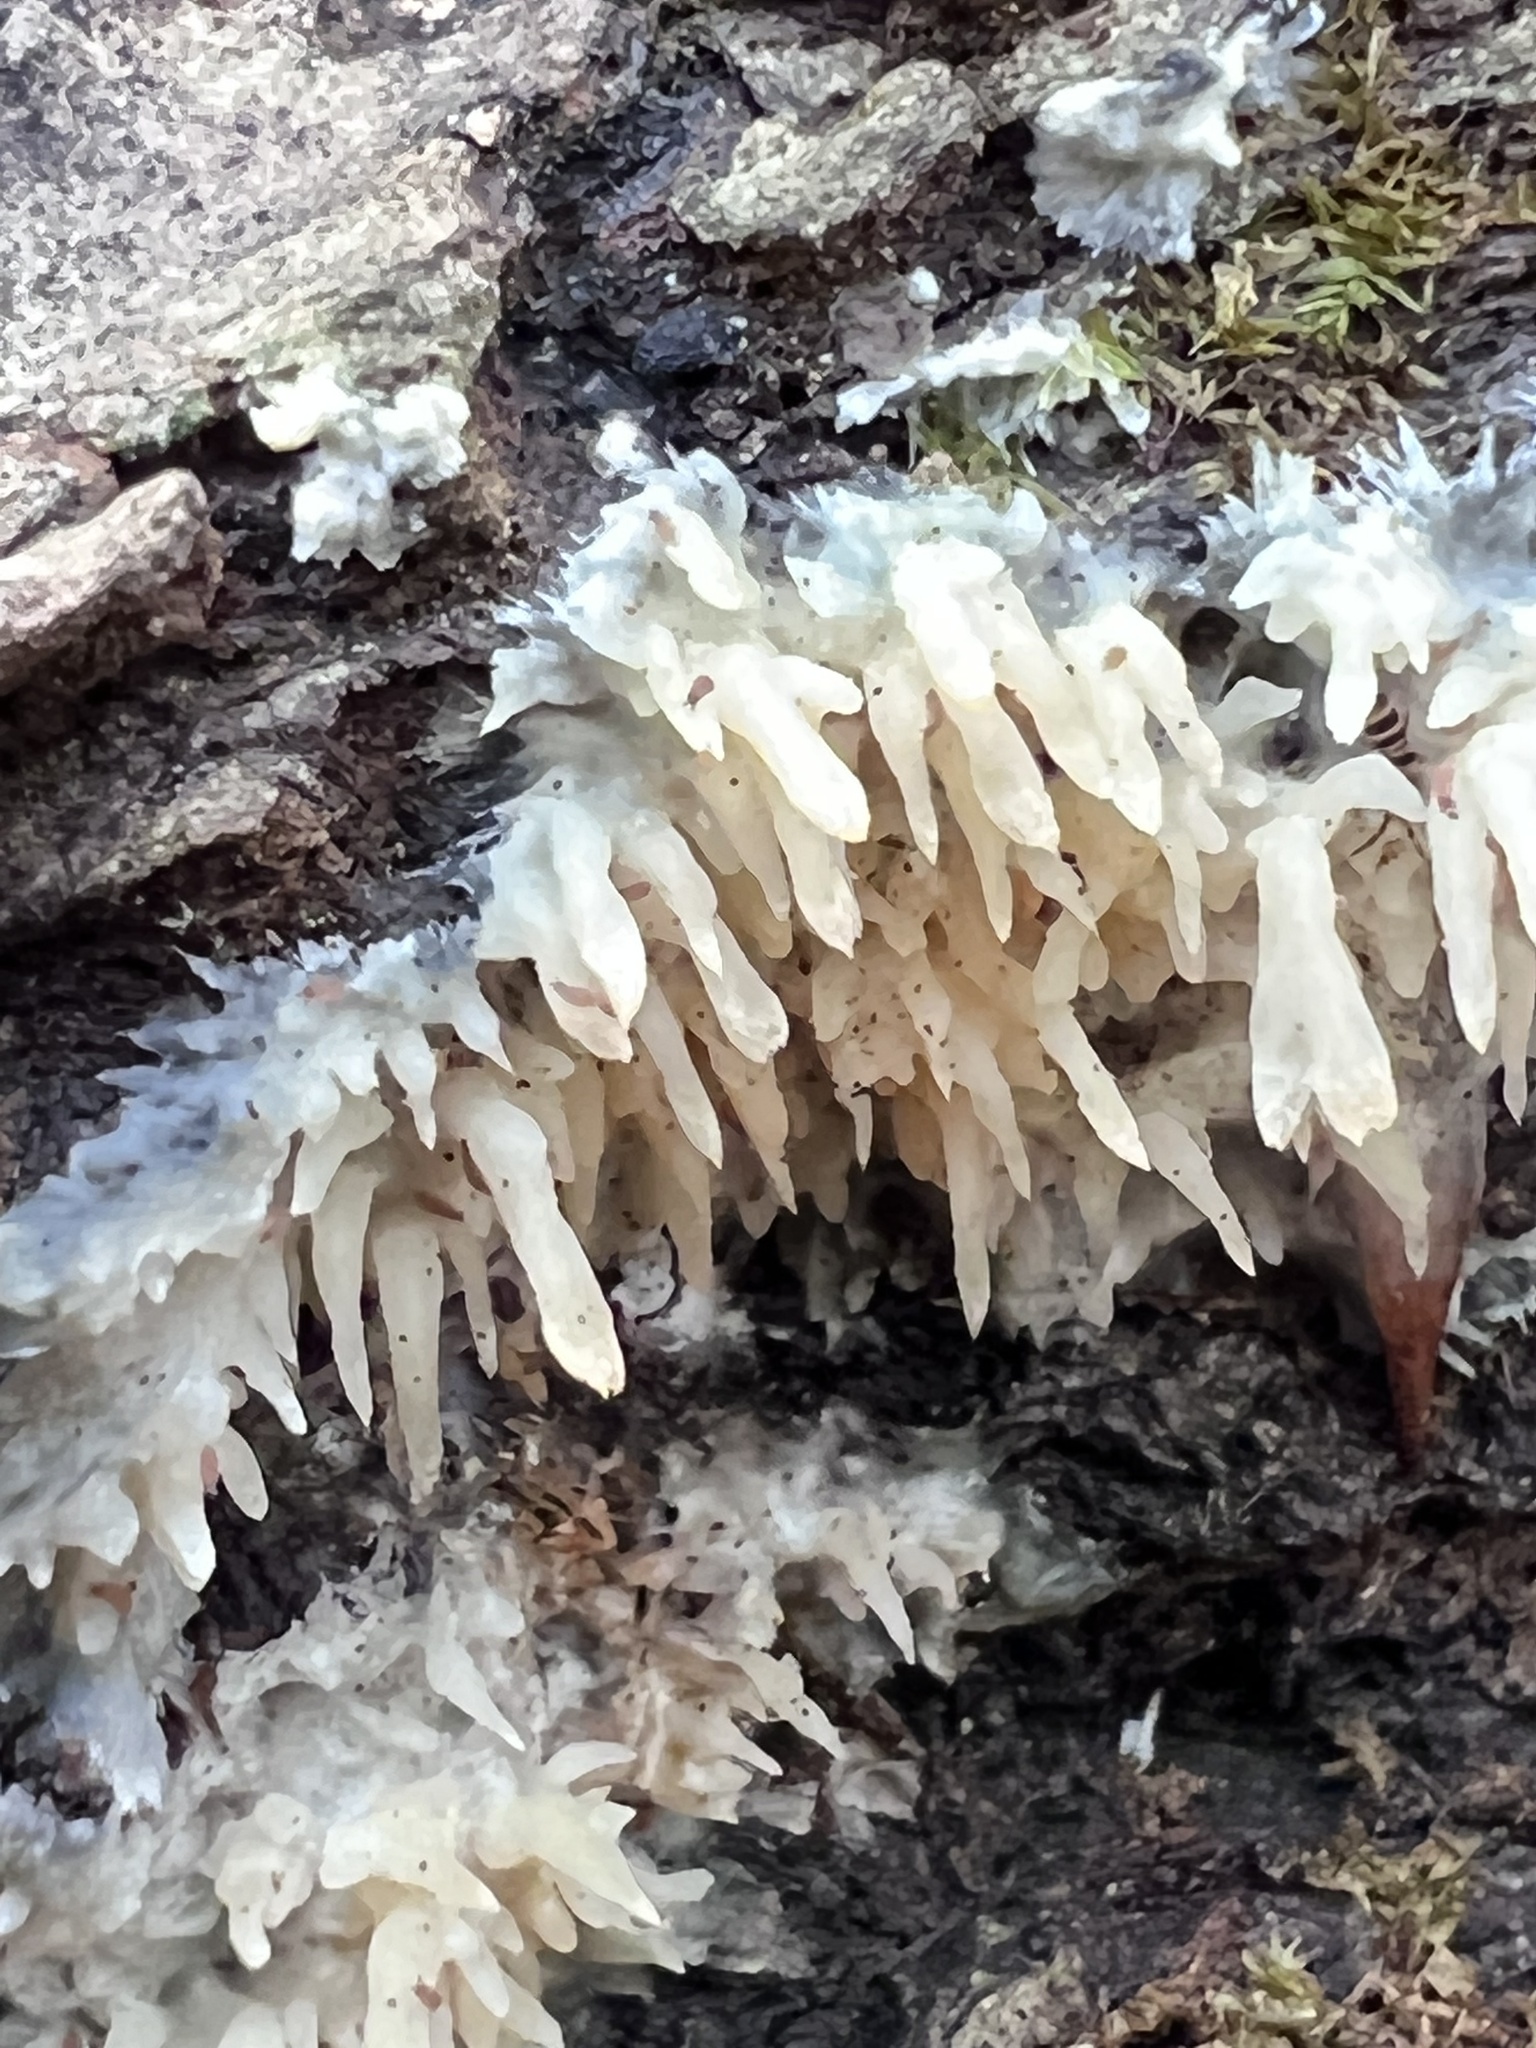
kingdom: Fungi
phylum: Basidiomycota
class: Agaricomycetes
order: Agaricales
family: Radulomycetaceae
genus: Radulomyces
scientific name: Radulomyces copelandii
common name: Asian beauty
